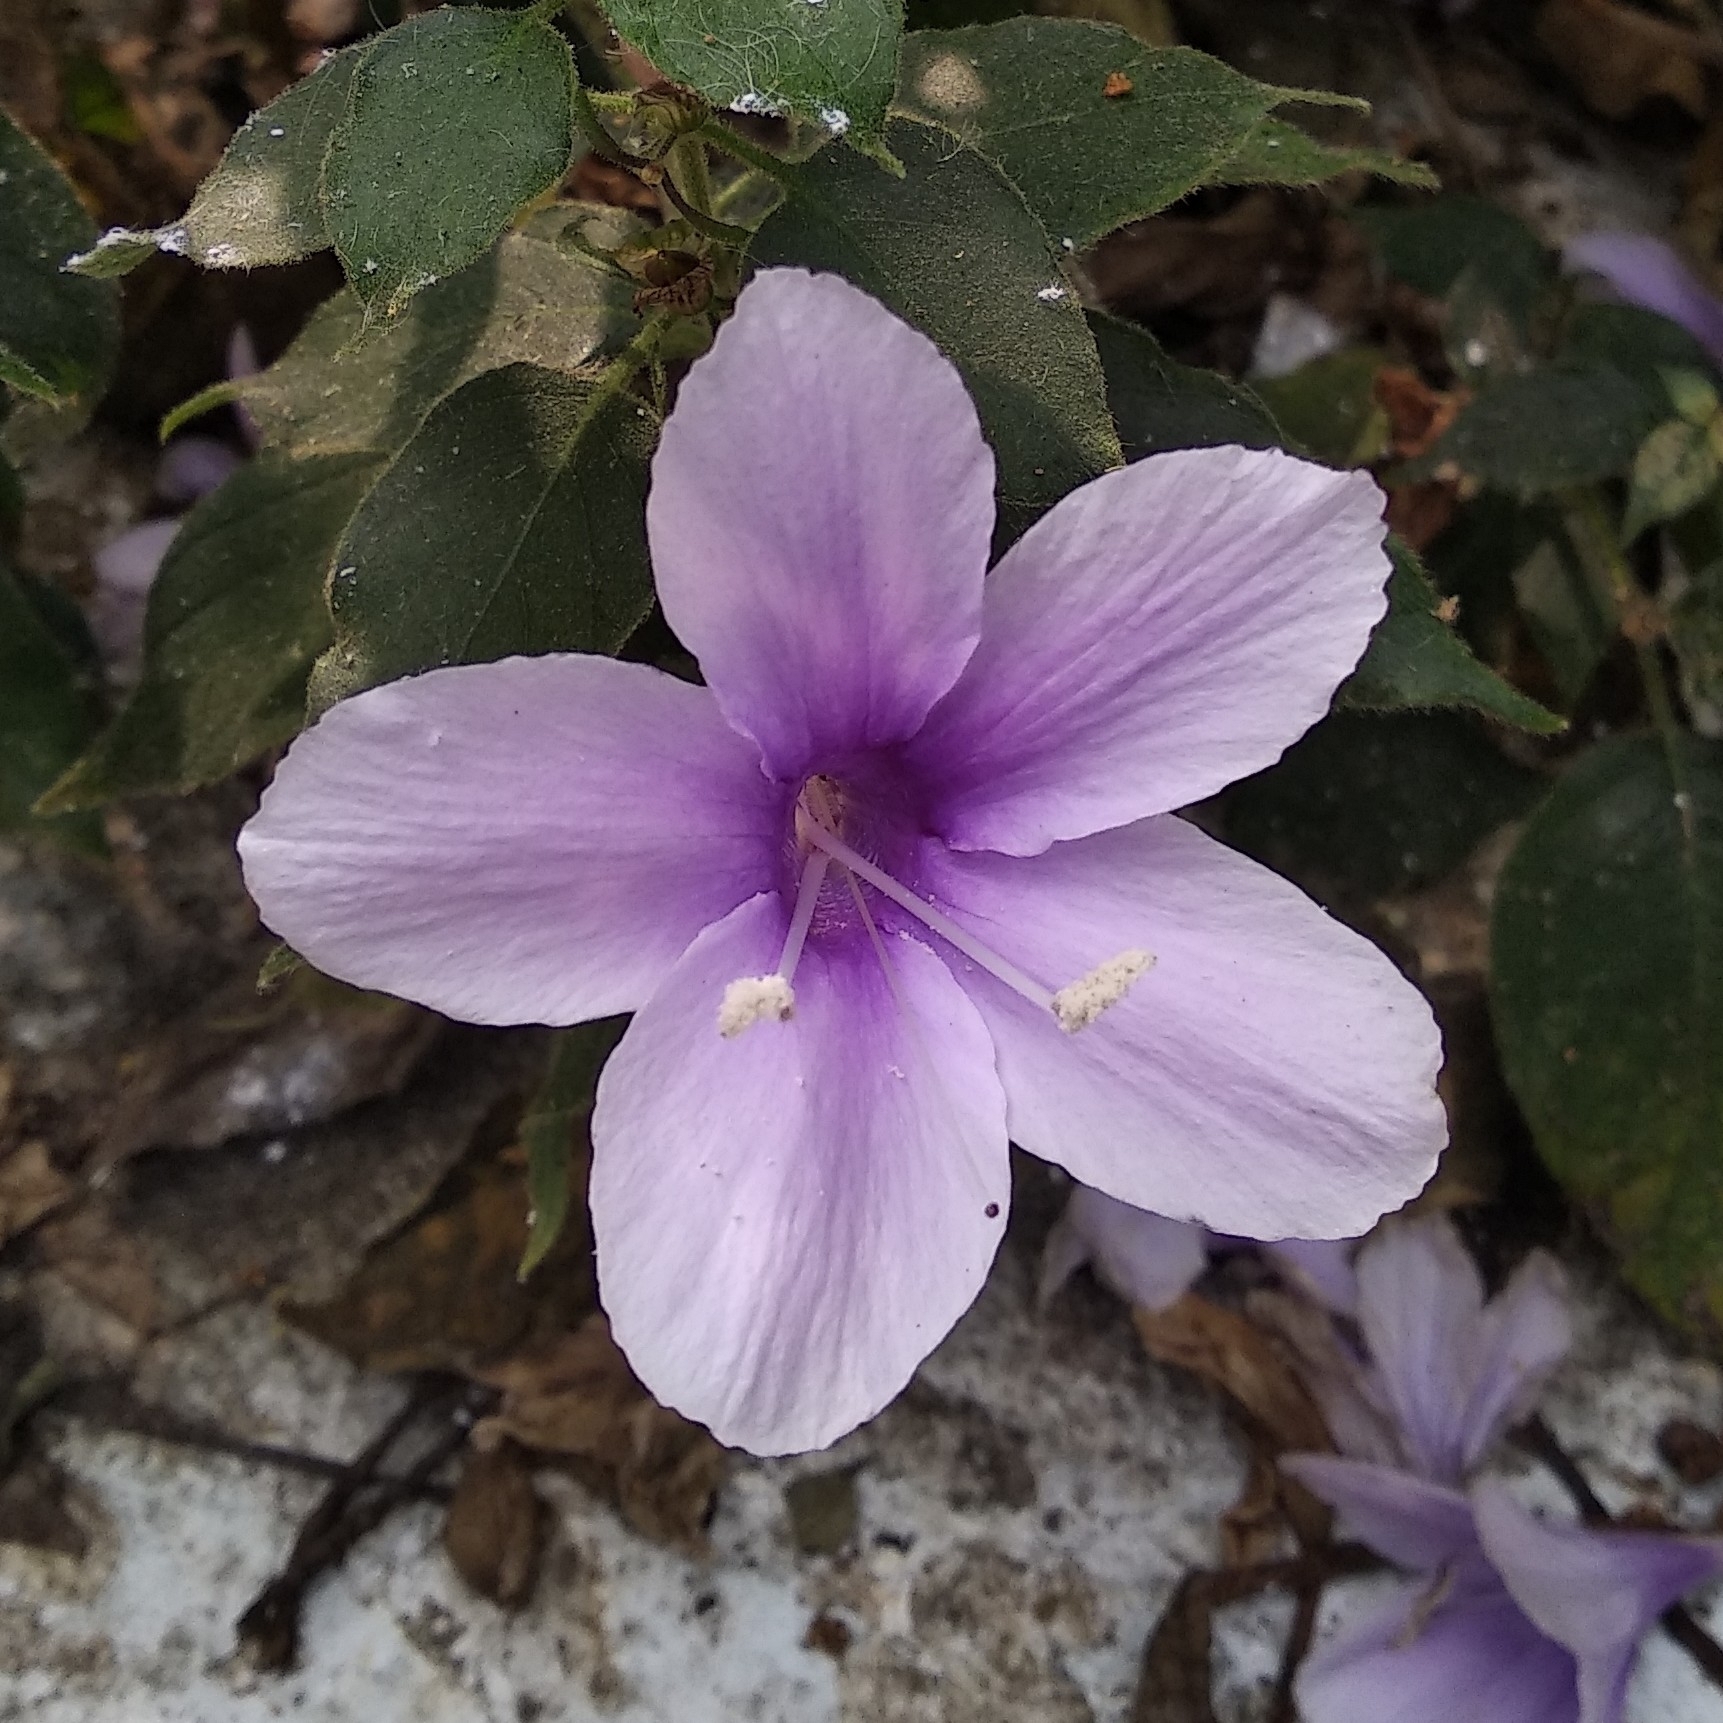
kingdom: Plantae
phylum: Tracheophyta
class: Magnoliopsida
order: Lamiales
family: Acanthaceae
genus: Barleria
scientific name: Barleria acuminata
